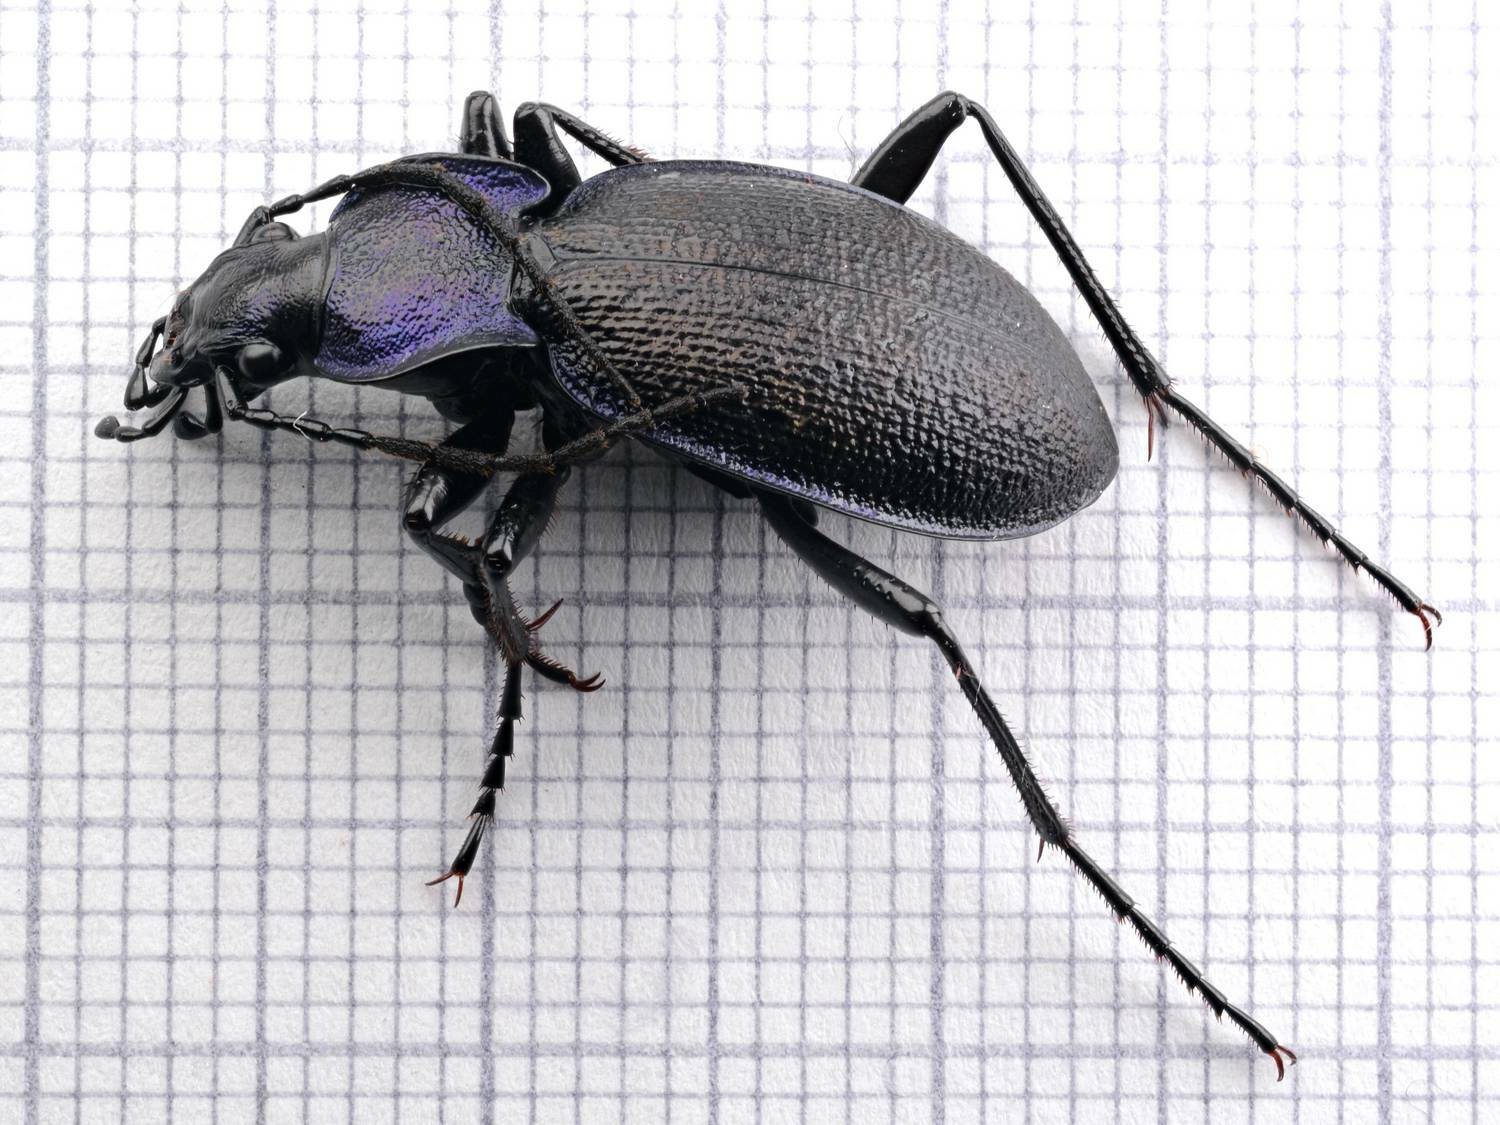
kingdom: Animalia
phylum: Arthropoda
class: Insecta
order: Coleoptera
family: Carabidae
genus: Carabus
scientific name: Carabus problematicus
